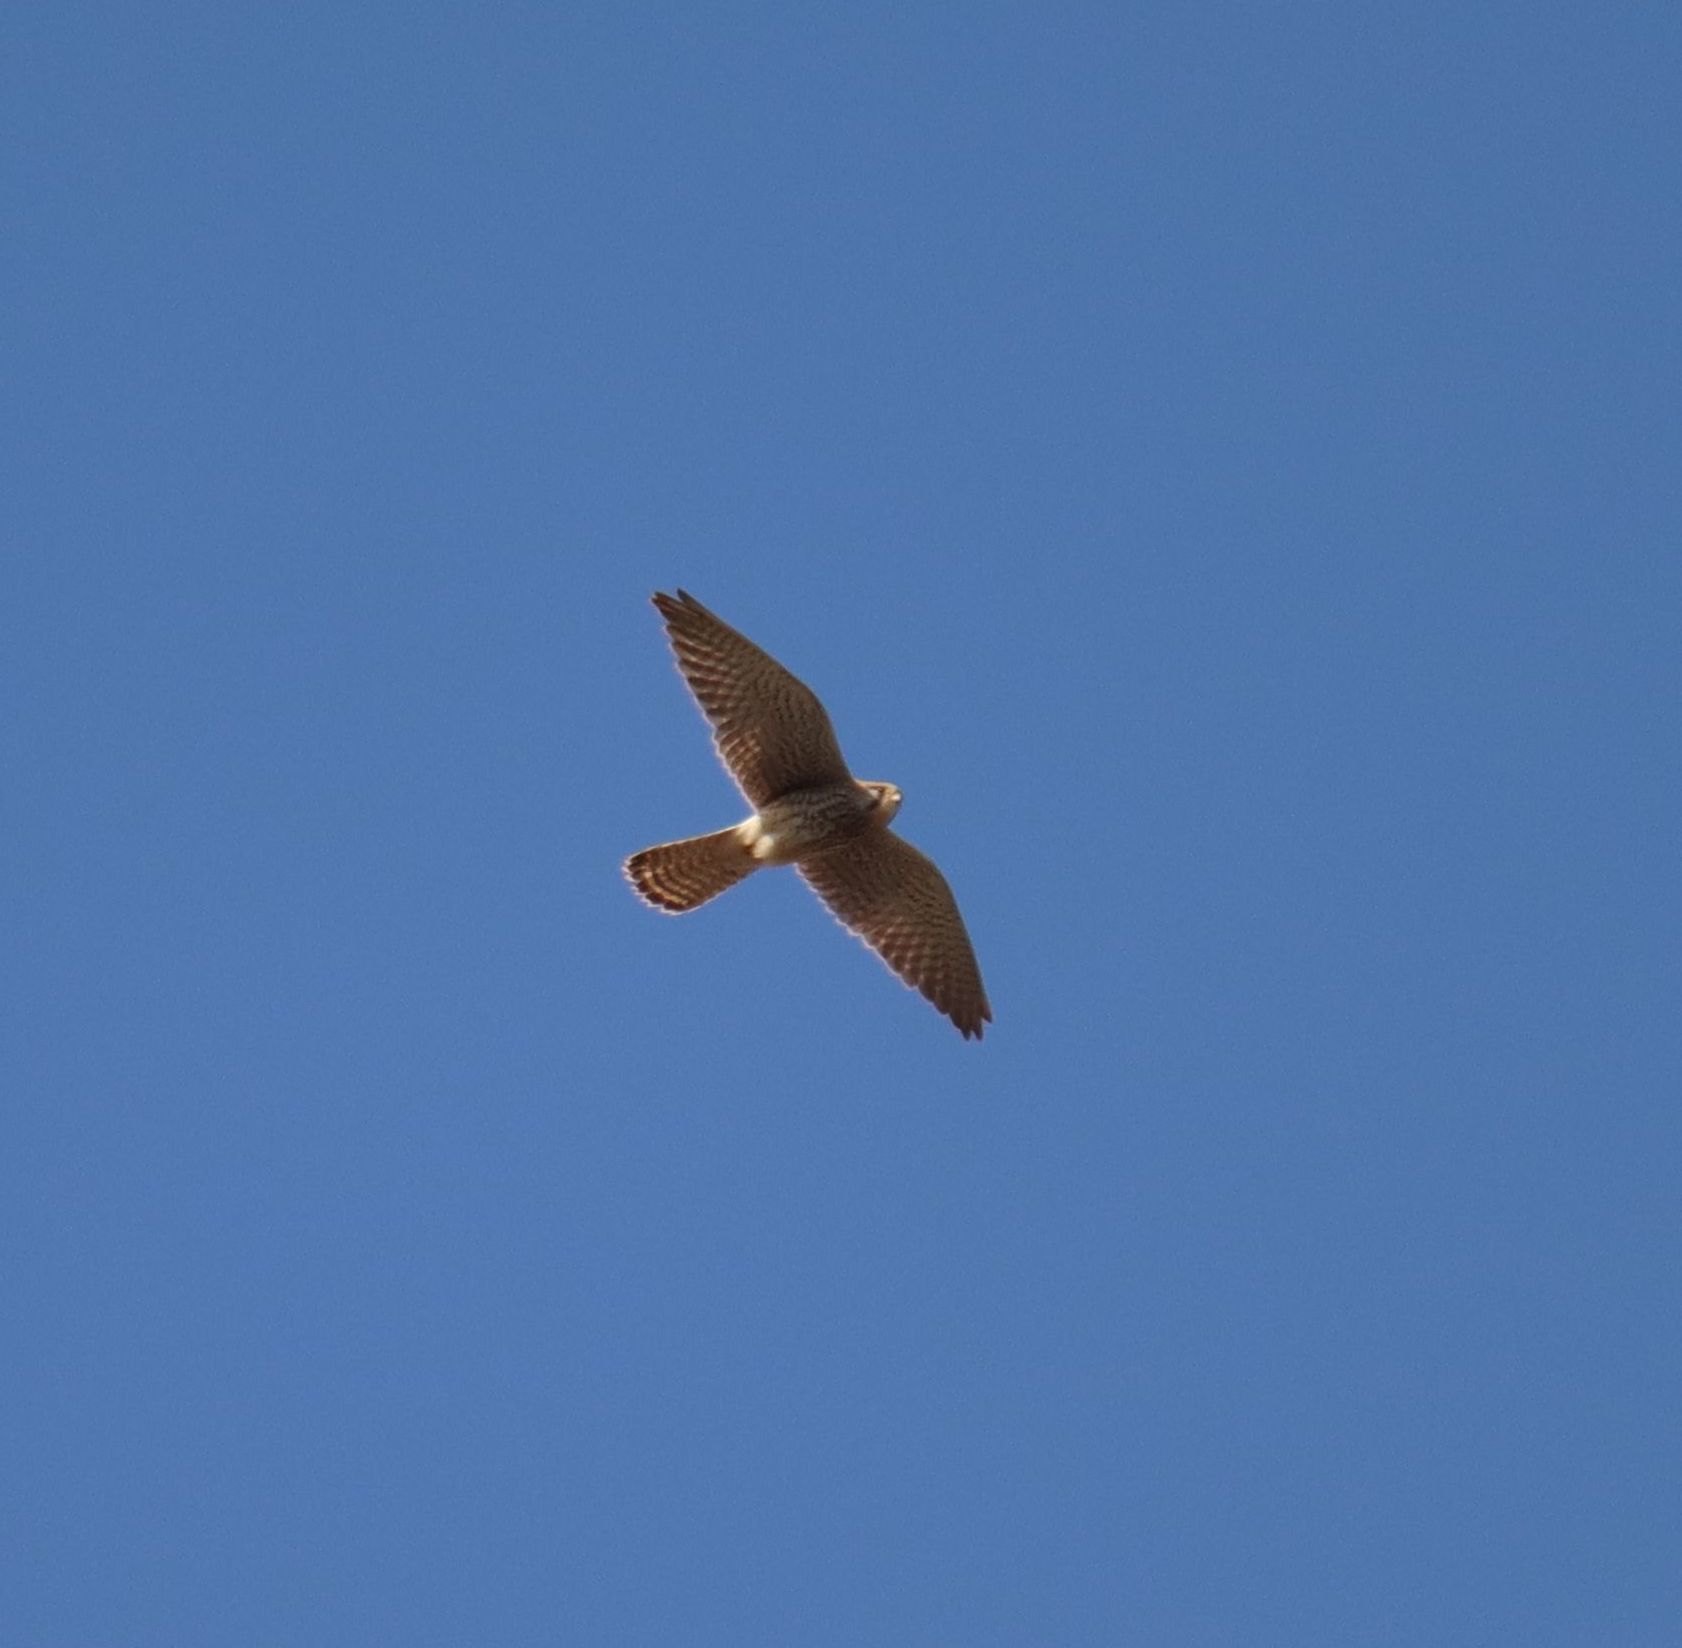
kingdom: Animalia
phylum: Chordata
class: Aves
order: Falconiformes
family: Falconidae
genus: Falco
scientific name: Falco tinnunculus
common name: Common kestrel
